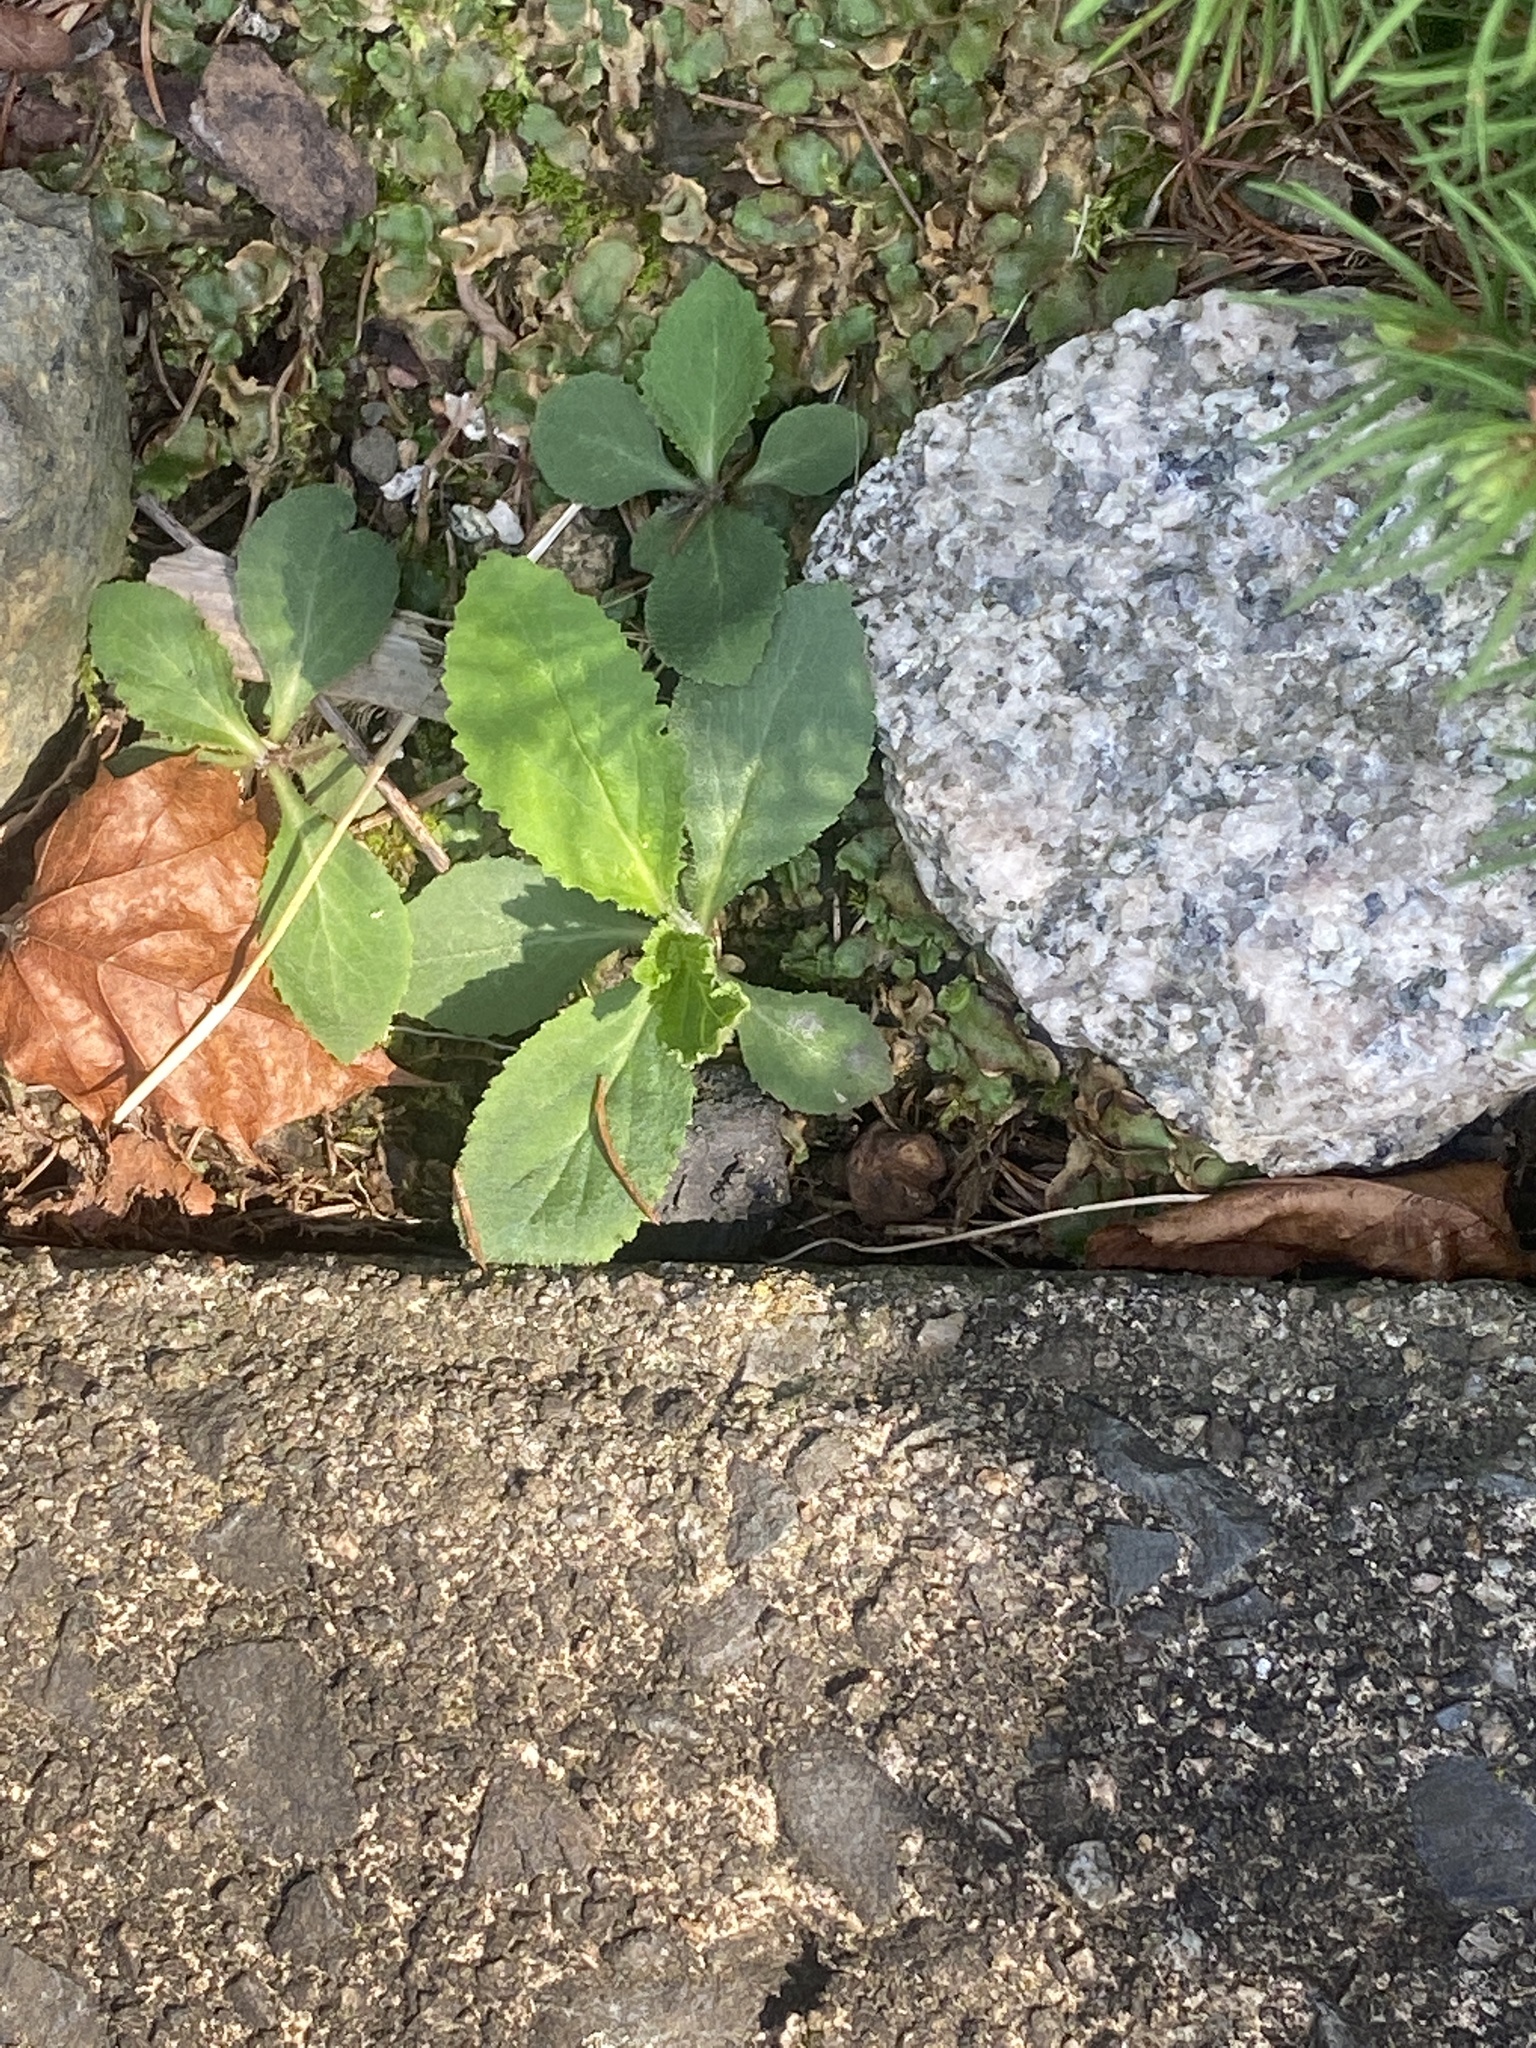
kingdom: Plantae
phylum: Tracheophyta
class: Magnoliopsida
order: Asterales
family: Campanulaceae
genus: Lobelia
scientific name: Lobelia inflata
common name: Indian tobacco
